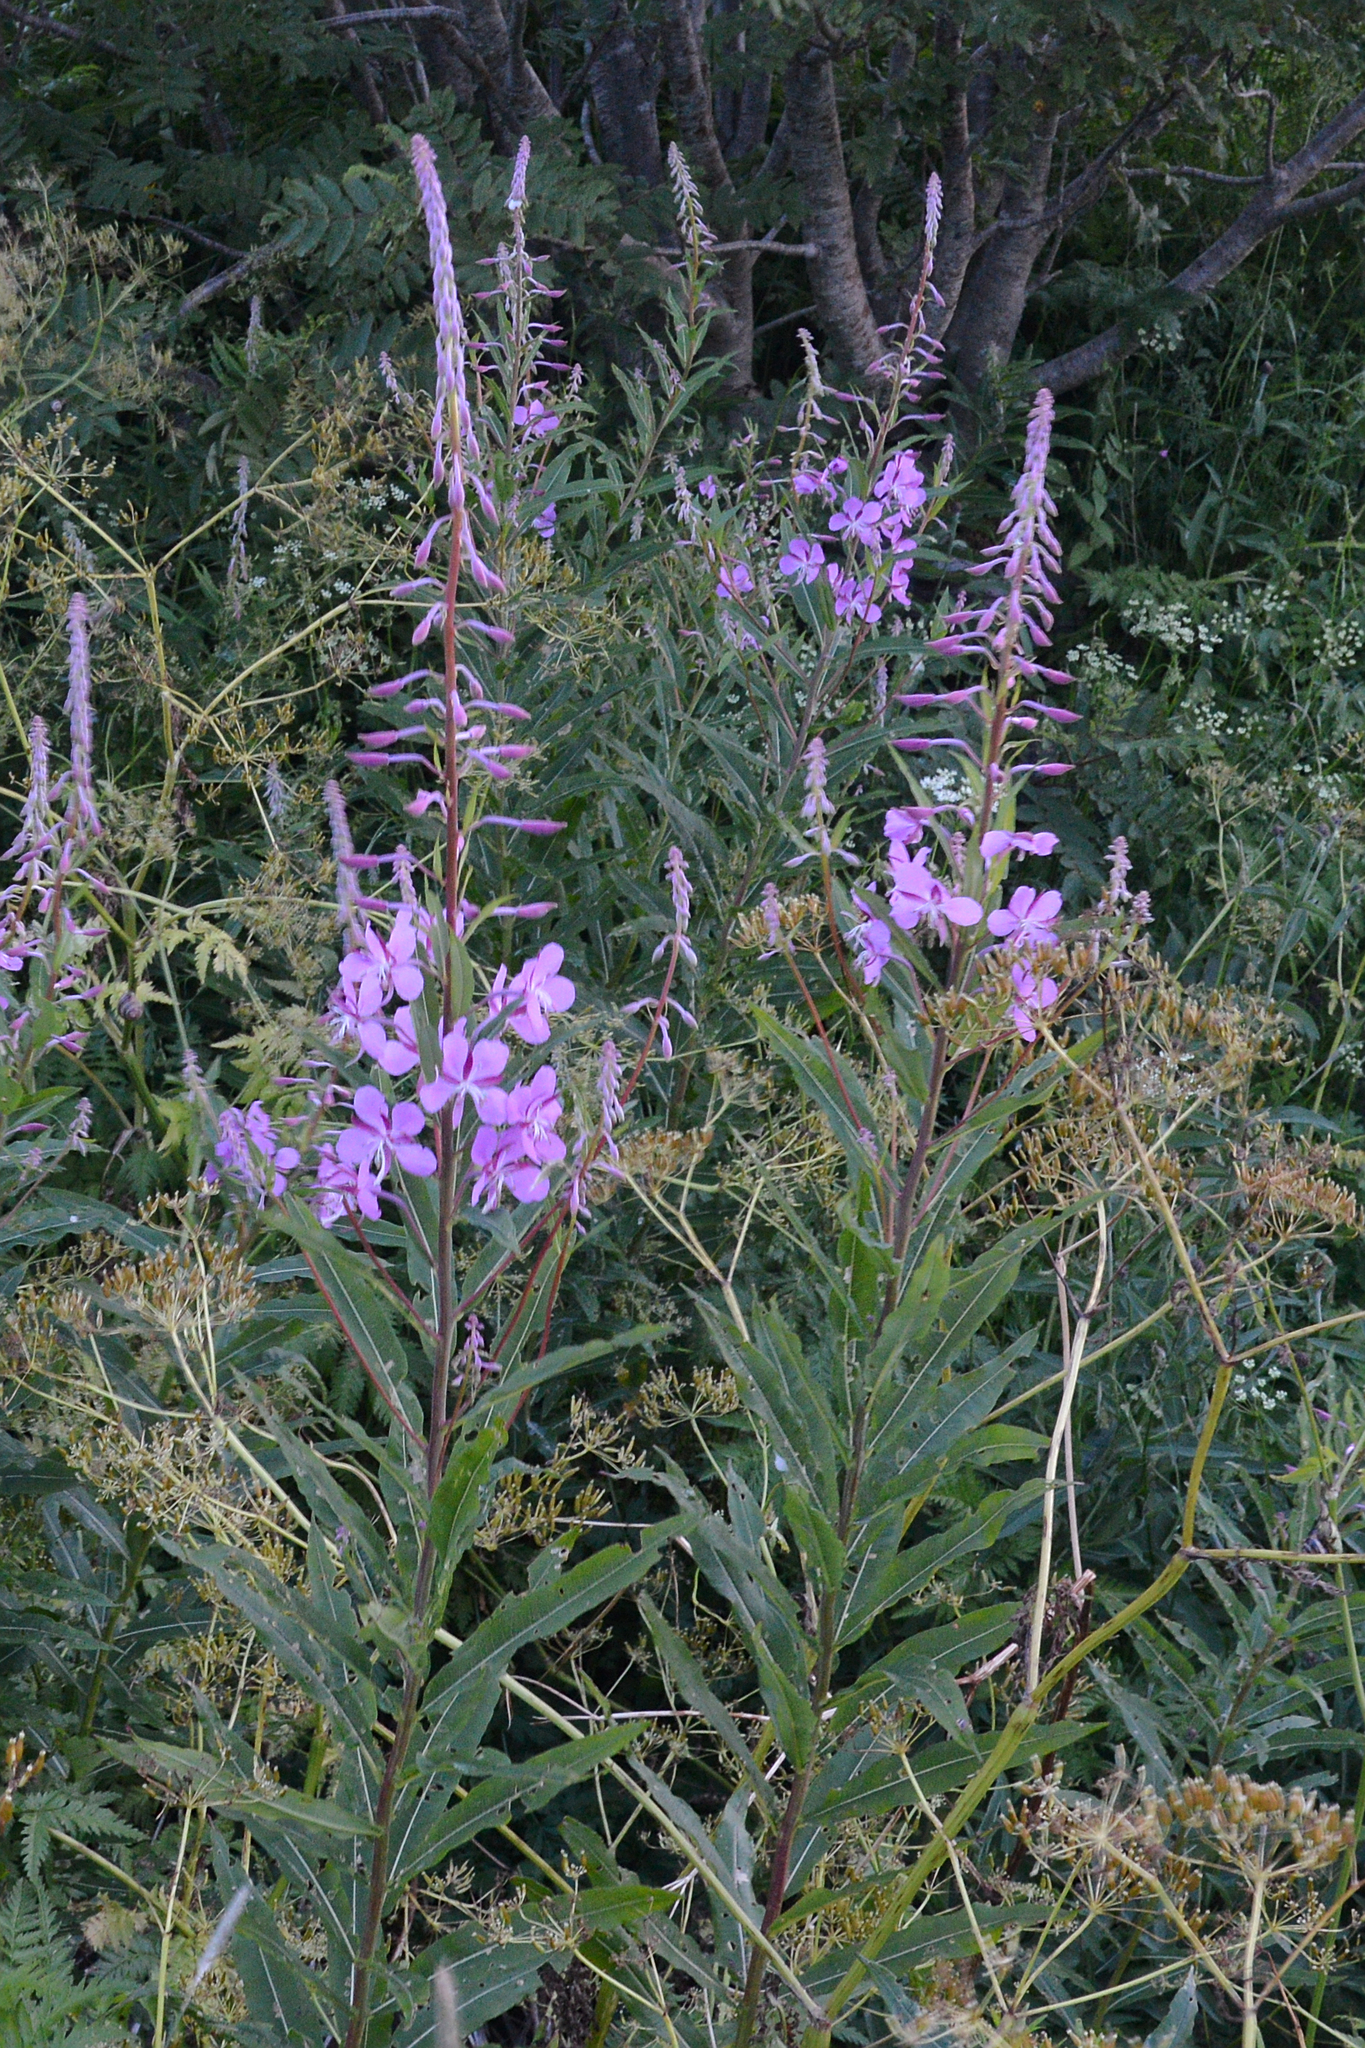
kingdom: Plantae
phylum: Tracheophyta
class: Magnoliopsida
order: Myrtales
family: Onagraceae
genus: Chamaenerion
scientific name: Chamaenerion angustifolium
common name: Fireweed
